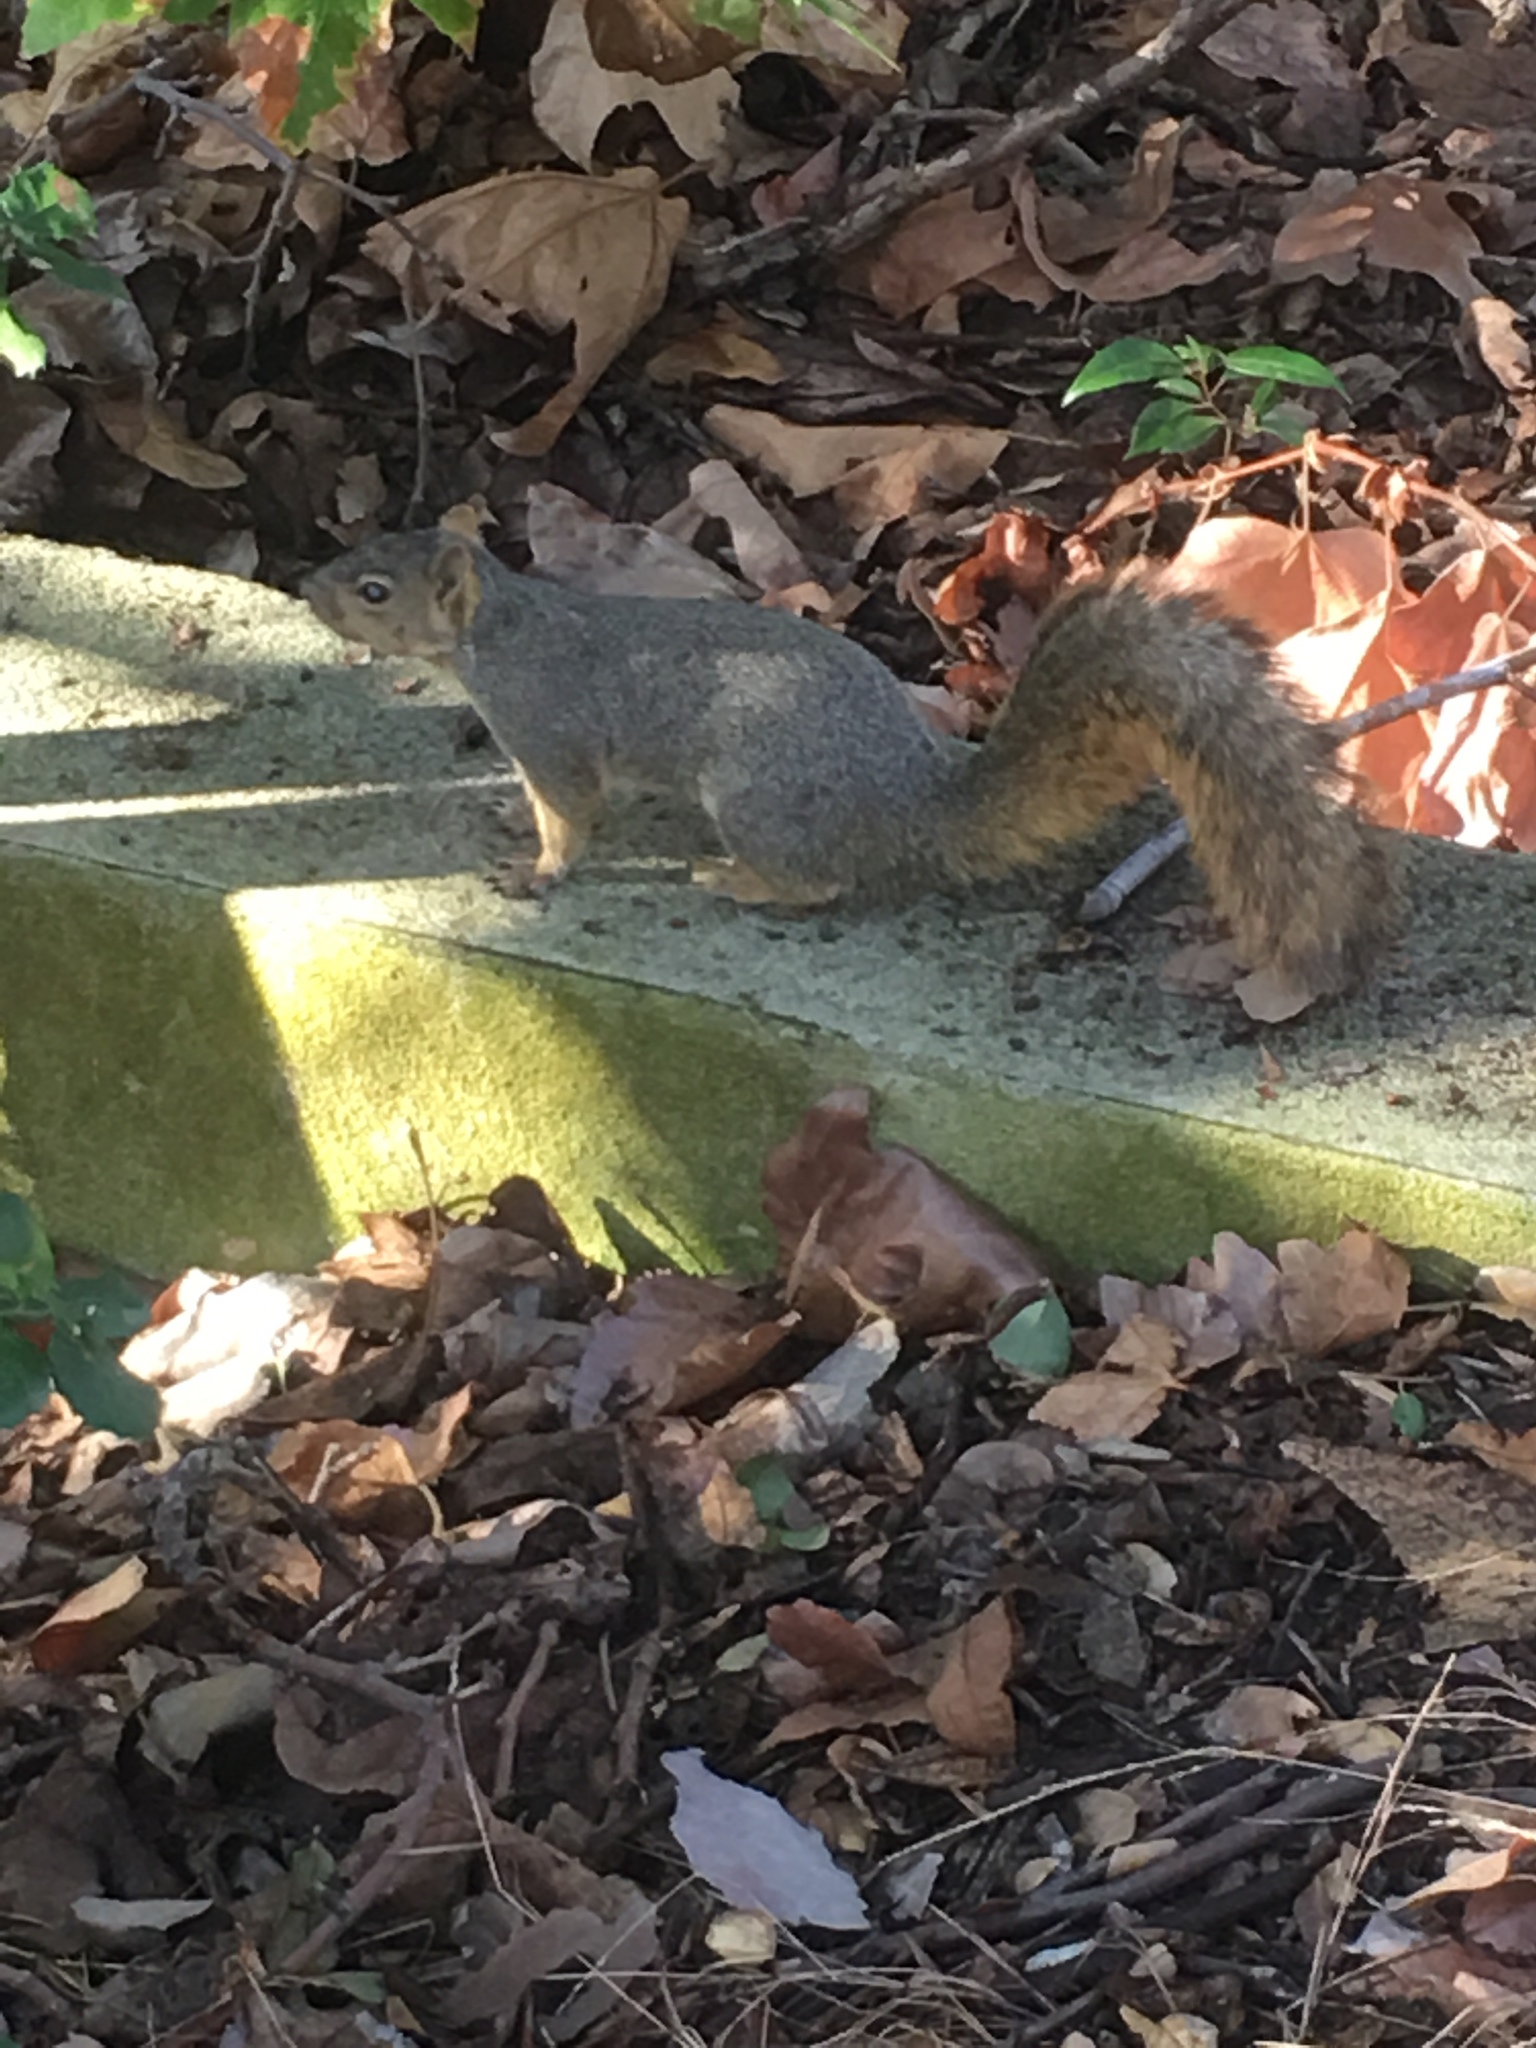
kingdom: Animalia
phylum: Chordata
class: Mammalia
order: Rodentia
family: Sciuridae
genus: Sciurus
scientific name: Sciurus niger
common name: Fox squirrel
